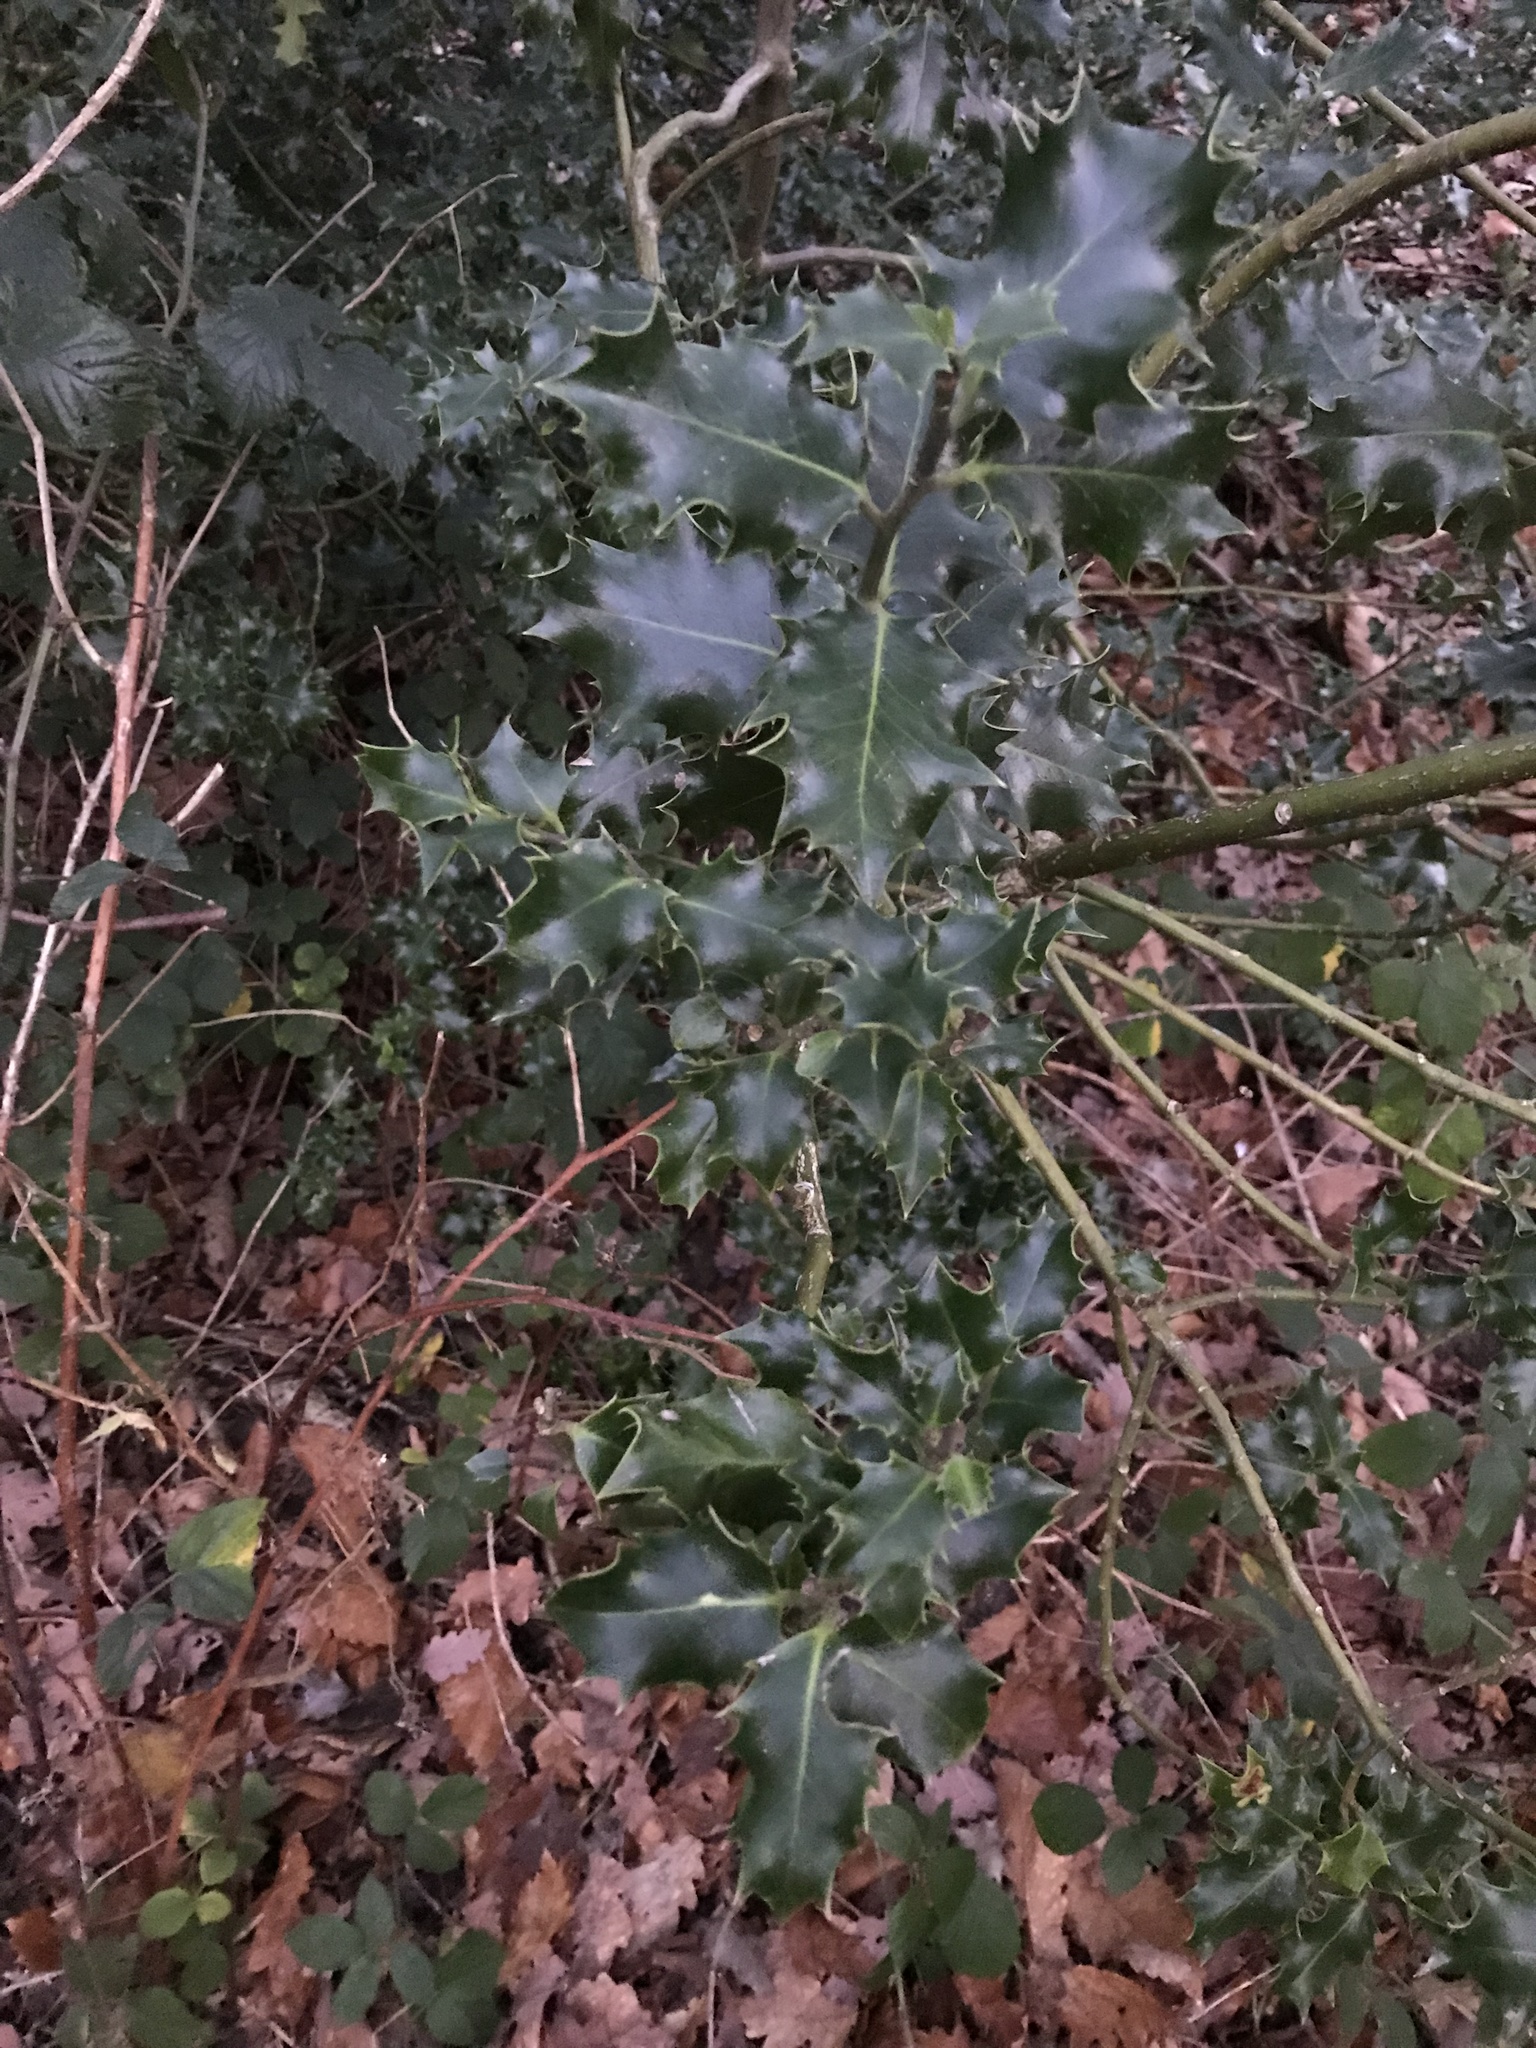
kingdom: Plantae
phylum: Tracheophyta
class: Magnoliopsida
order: Aquifoliales
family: Aquifoliaceae
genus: Ilex
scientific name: Ilex aquifolium
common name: English holly
